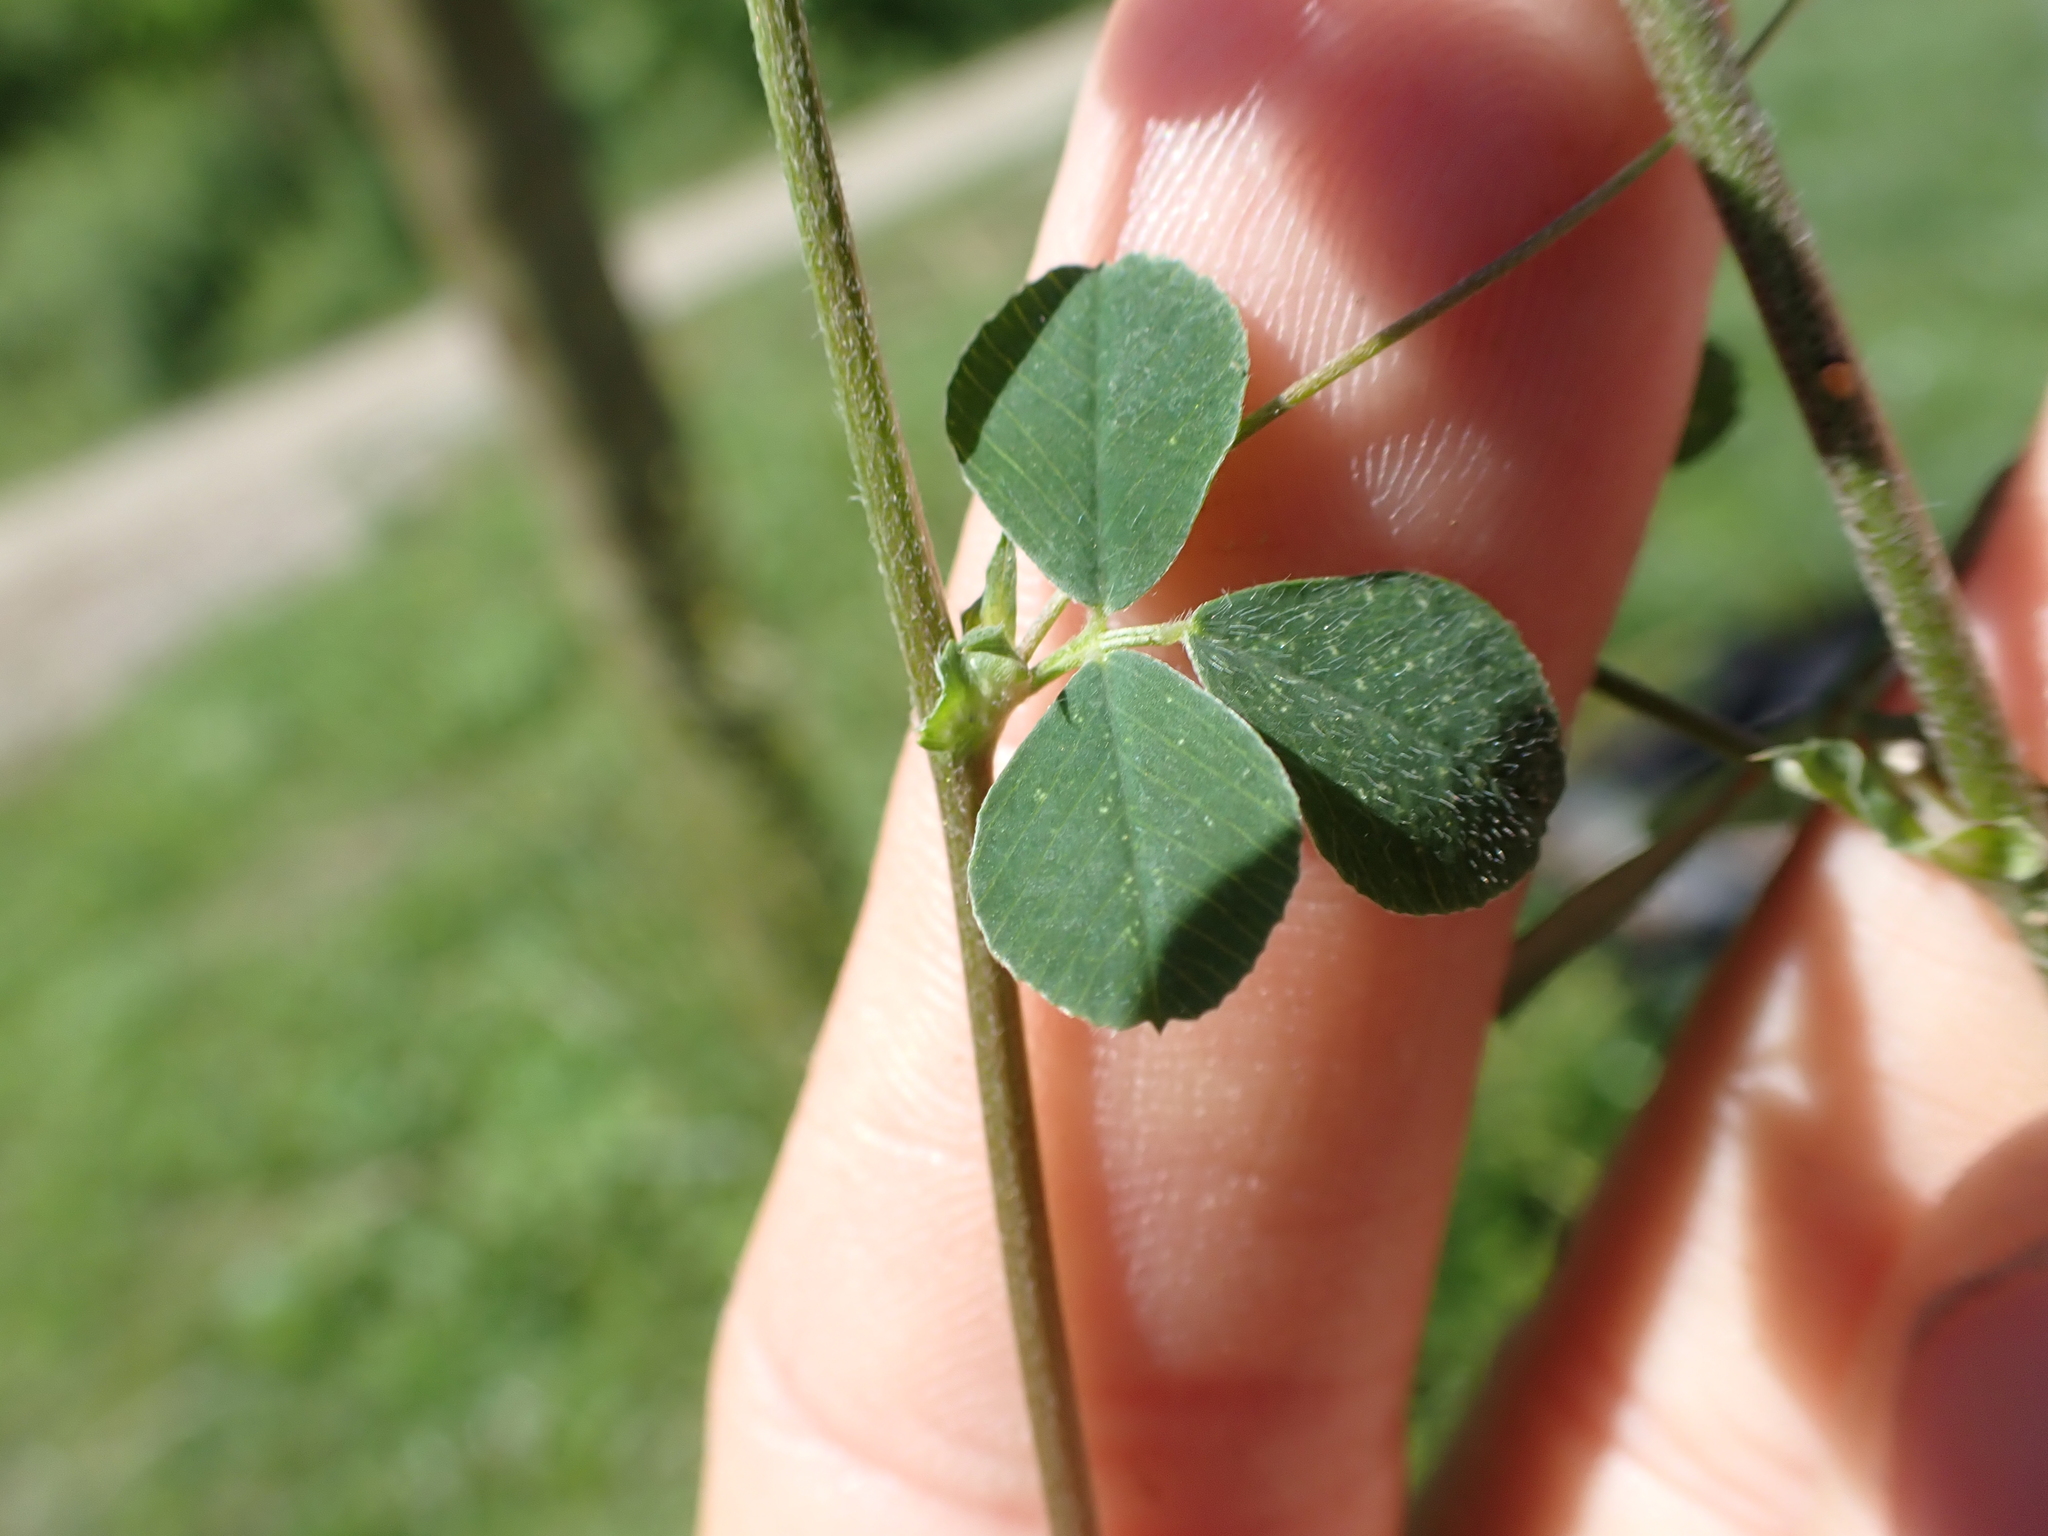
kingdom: Plantae
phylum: Tracheophyta
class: Magnoliopsida
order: Fabales
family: Fabaceae
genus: Medicago
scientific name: Medicago lupulina
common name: Black medick
